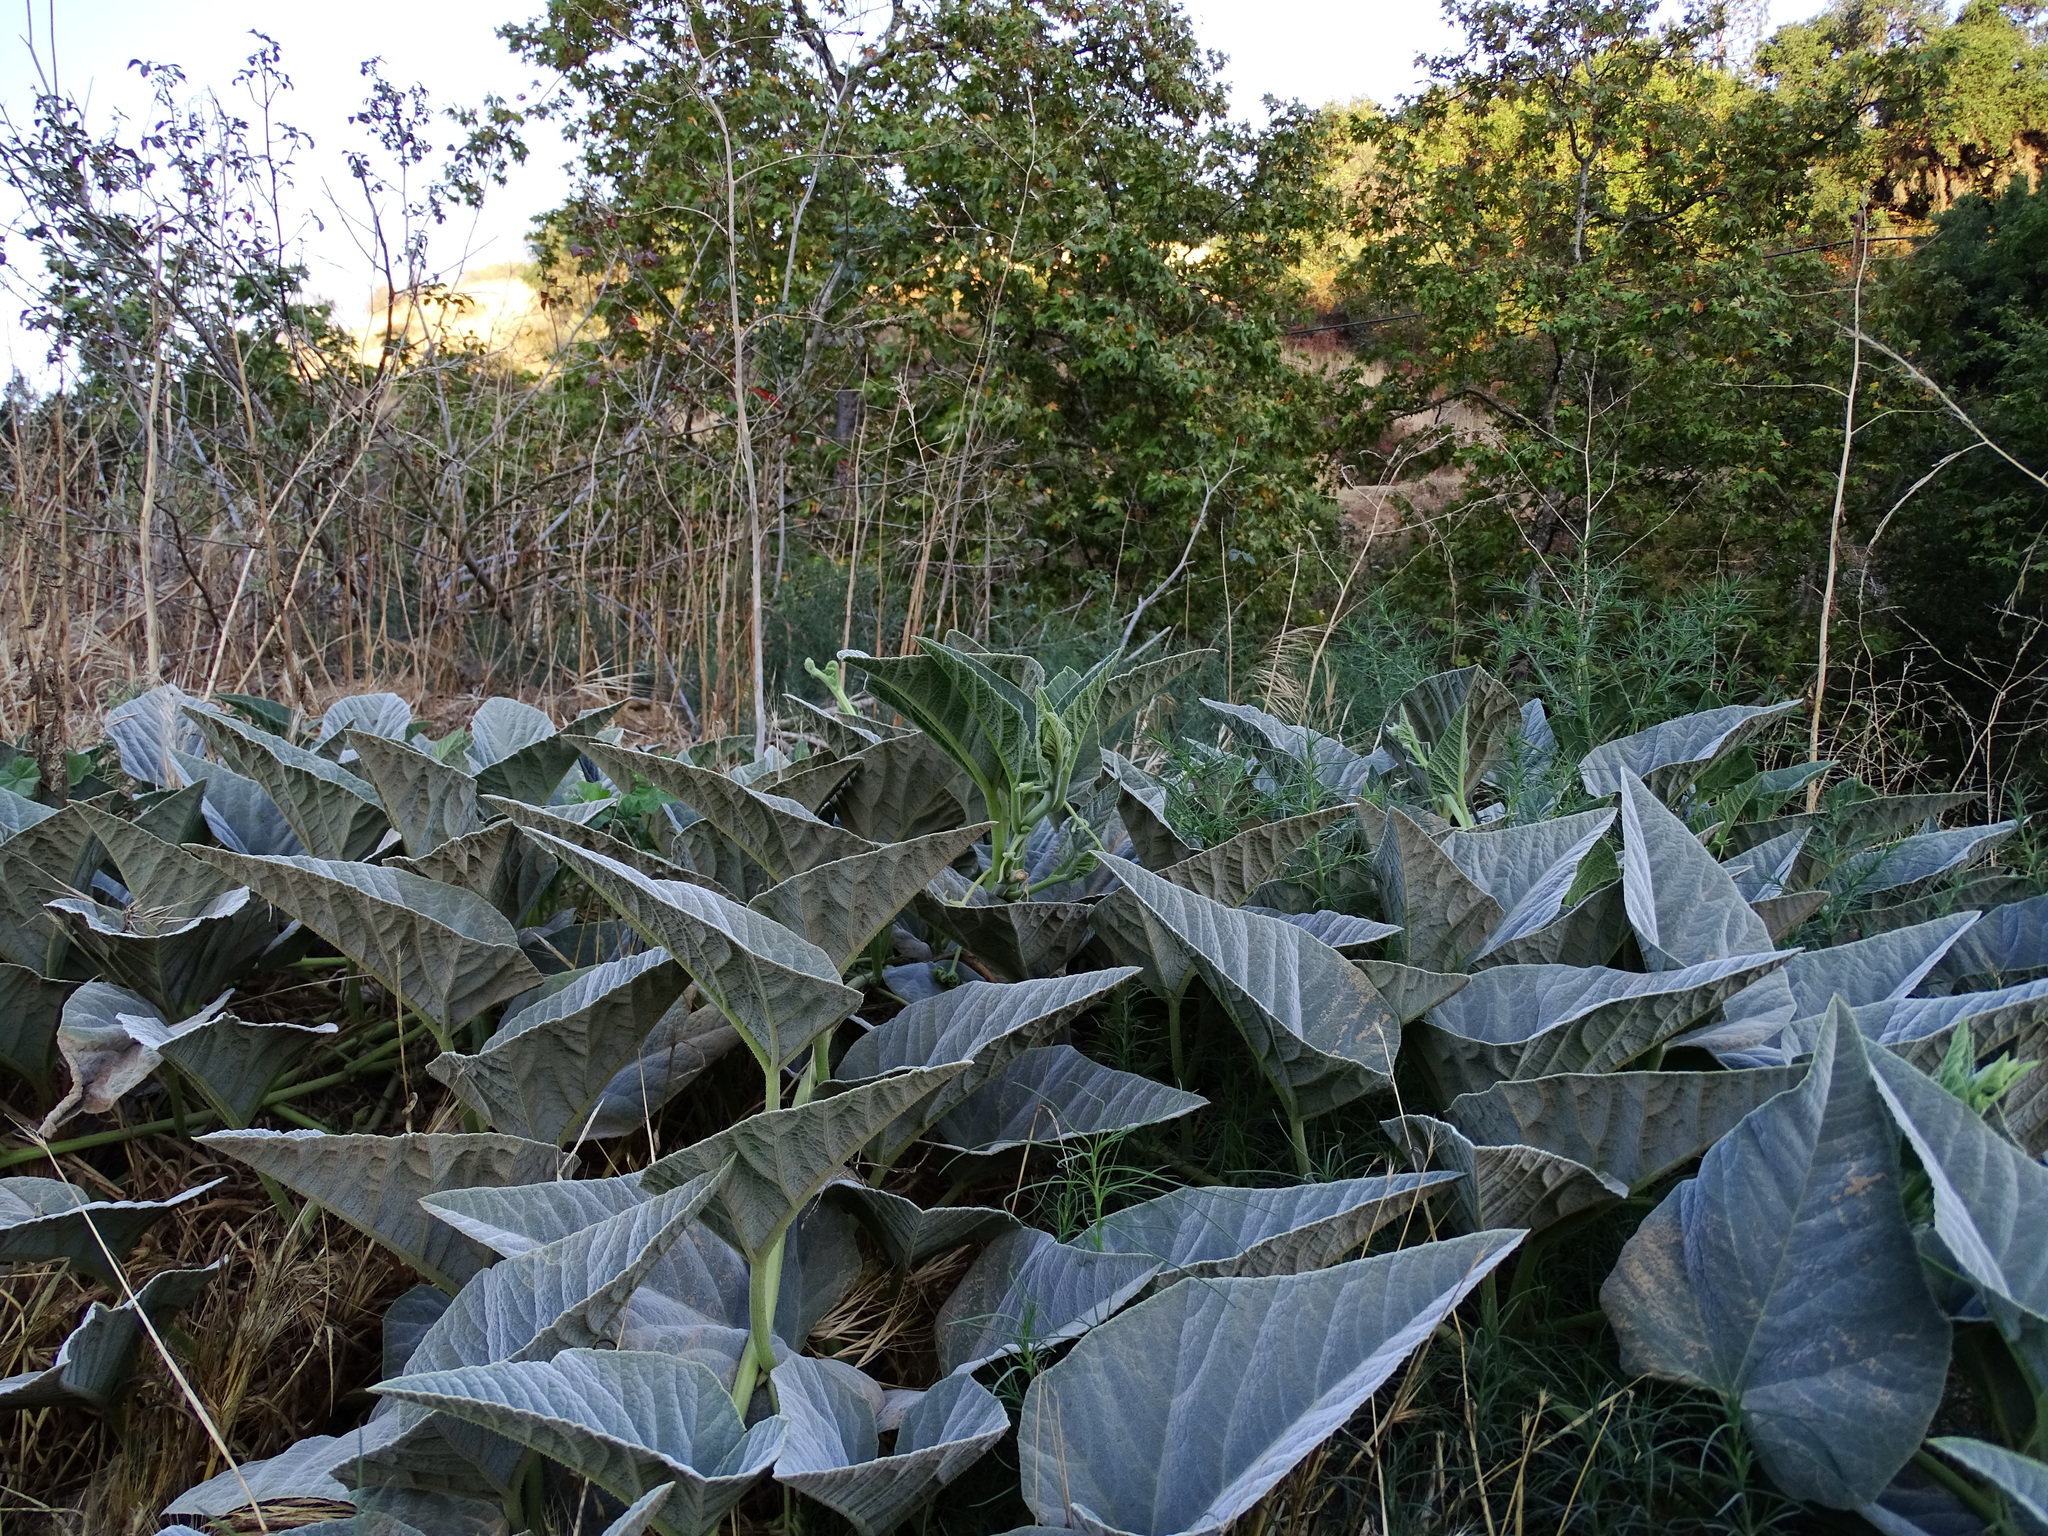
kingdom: Plantae
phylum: Tracheophyta
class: Magnoliopsida
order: Cucurbitales
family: Cucurbitaceae
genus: Cucurbita
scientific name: Cucurbita foetidissima
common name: Buffalo gourd
